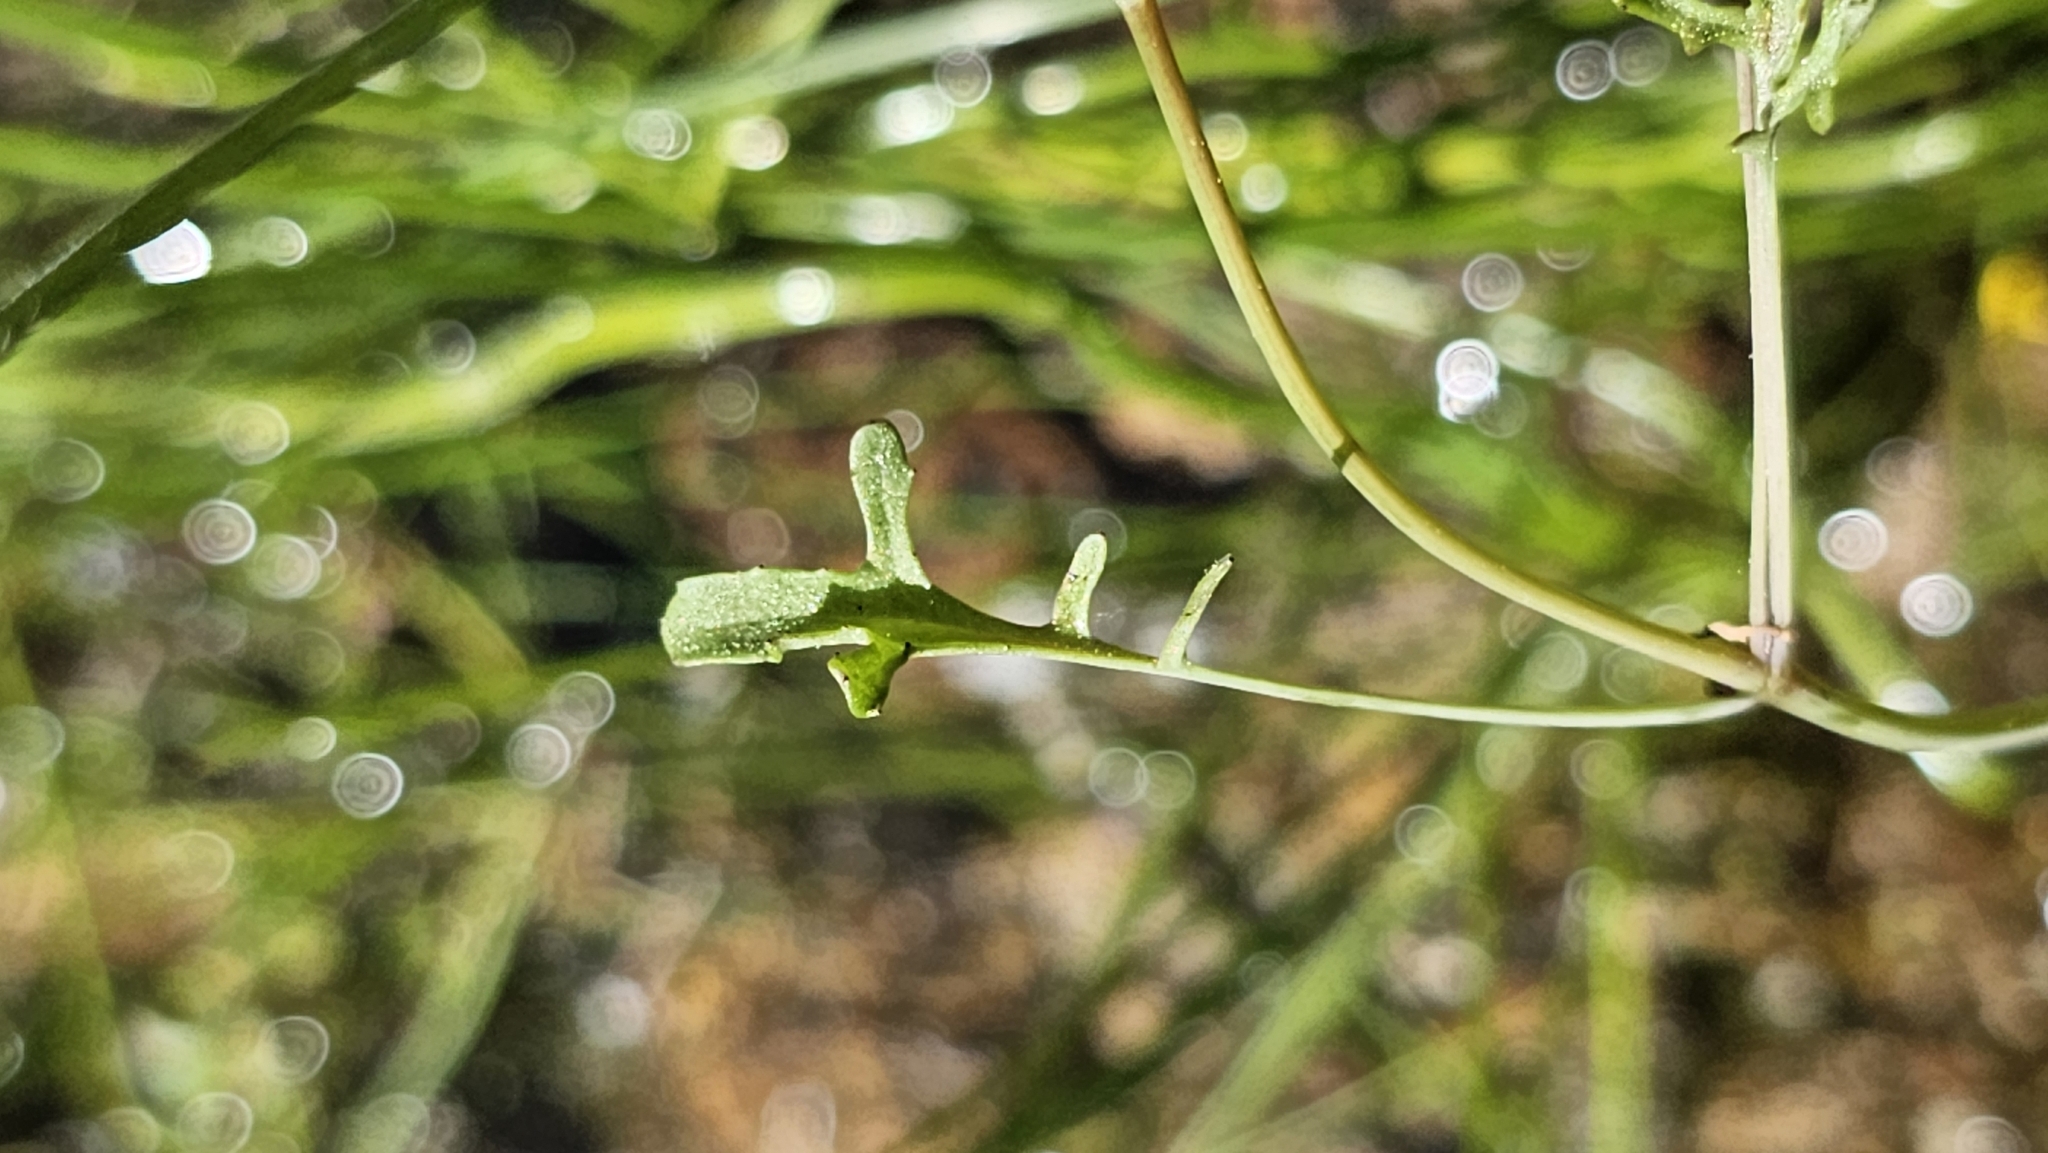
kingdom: Plantae
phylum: Tracheophyta
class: Magnoliopsida
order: Lamiales
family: Phrymaceae
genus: Erythranthe
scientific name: Erythranthe laciniata
